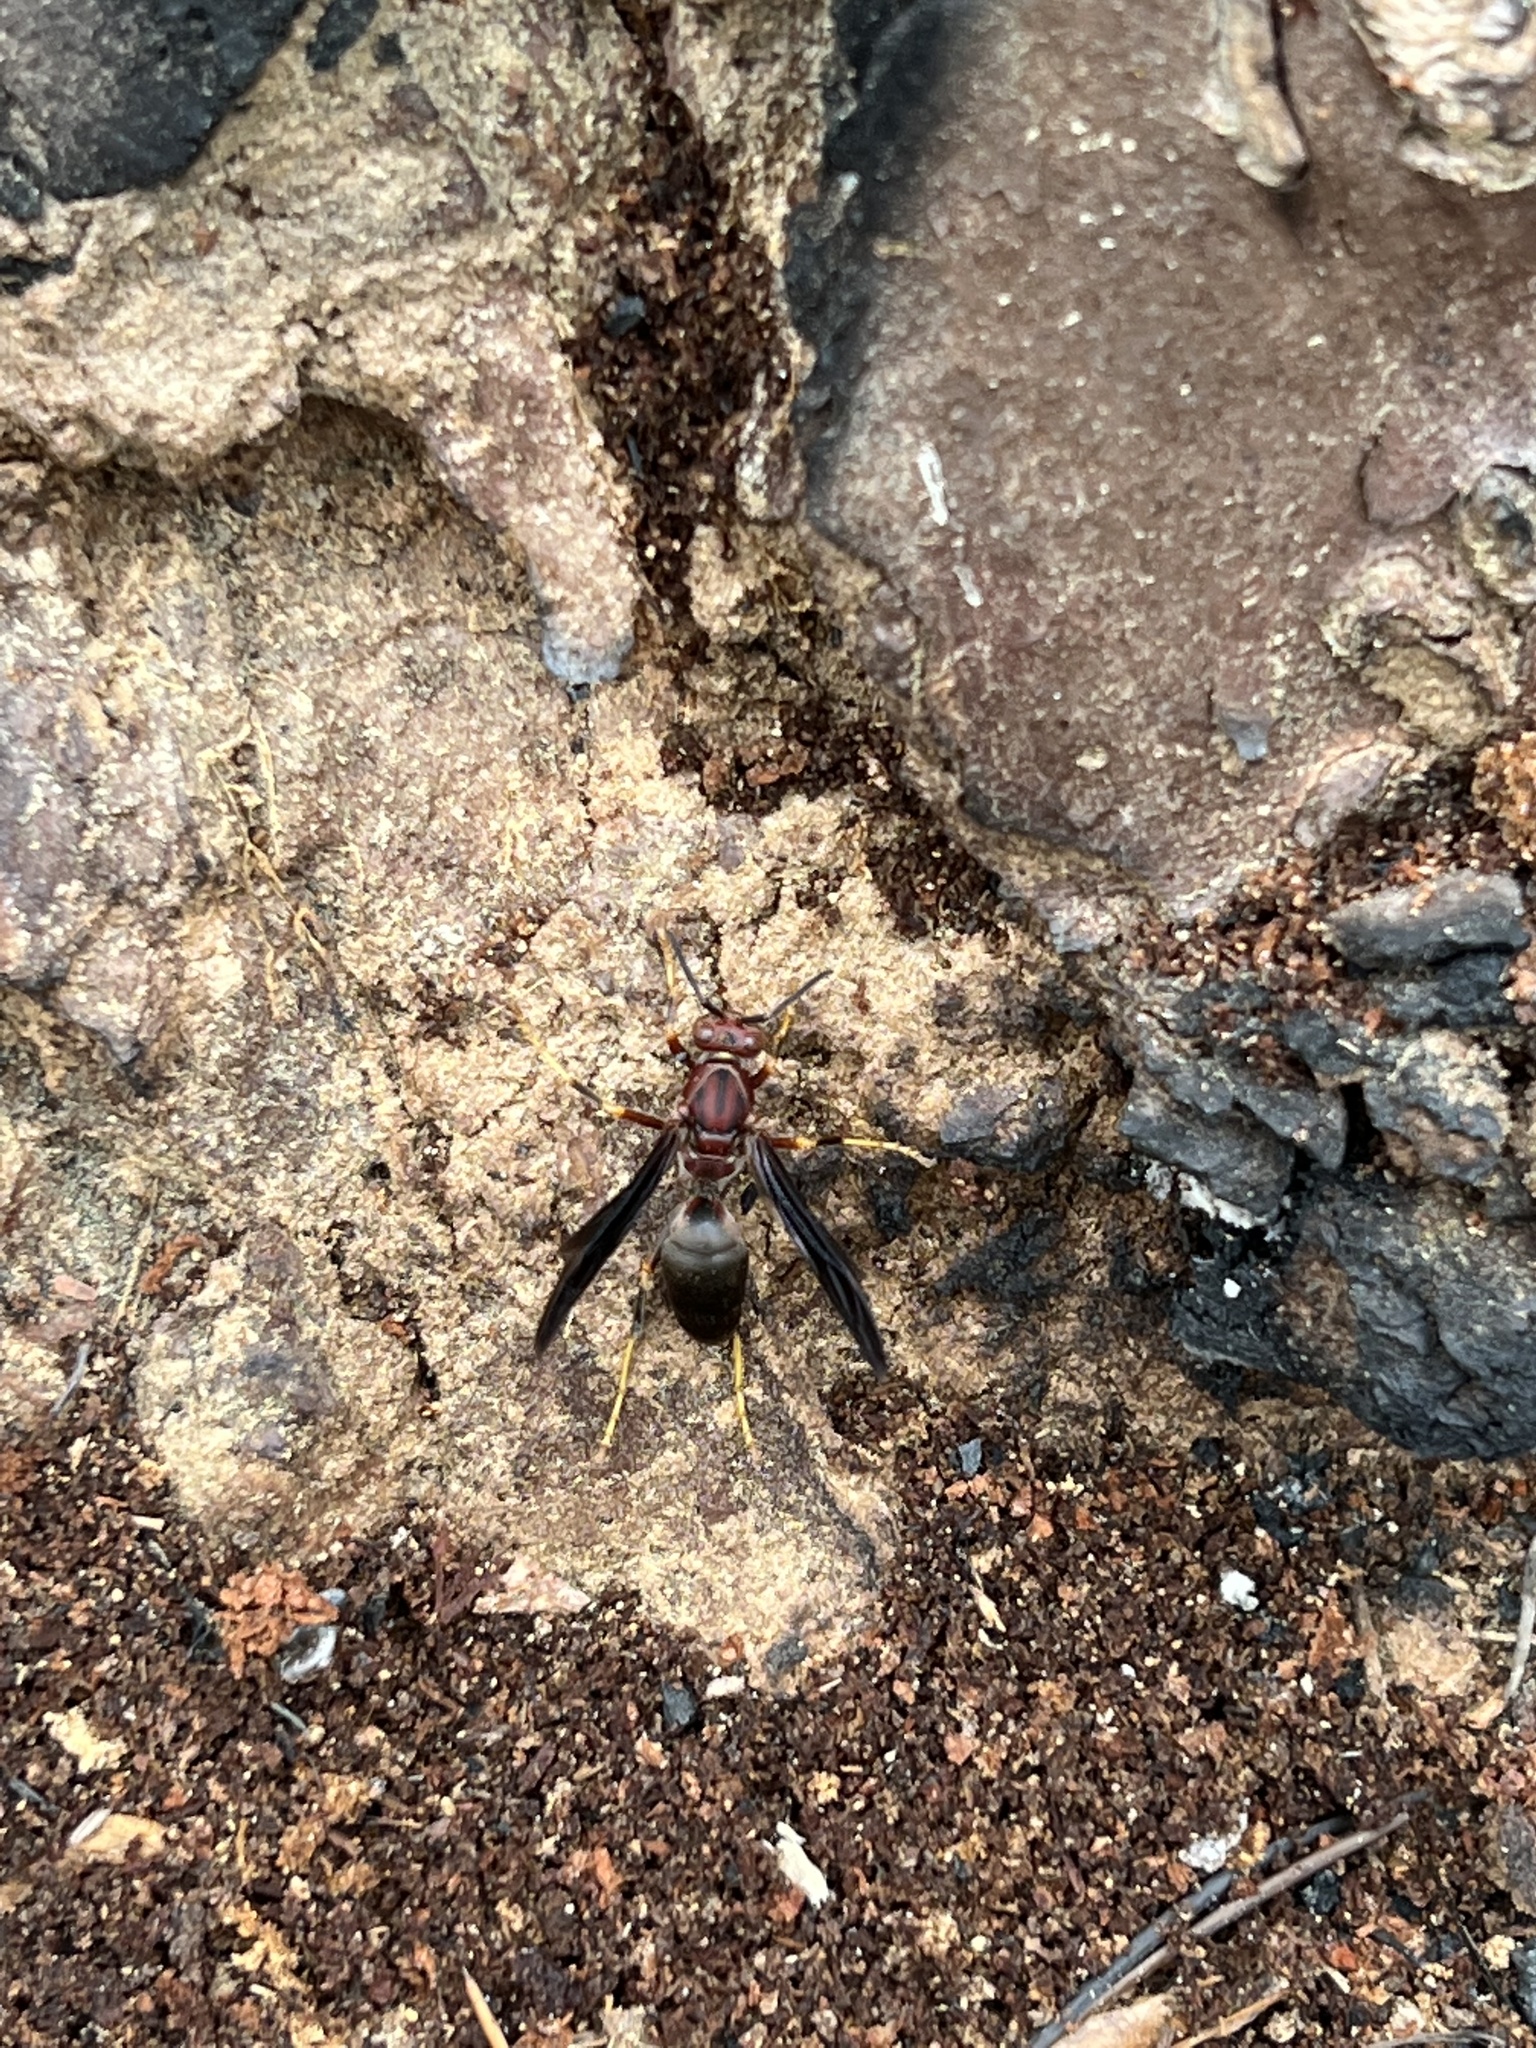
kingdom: Animalia
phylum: Arthropoda
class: Insecta
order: Hymenoptera
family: Eumenidae
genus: Polistes
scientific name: Polistes metricus
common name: Metric paper wasp
